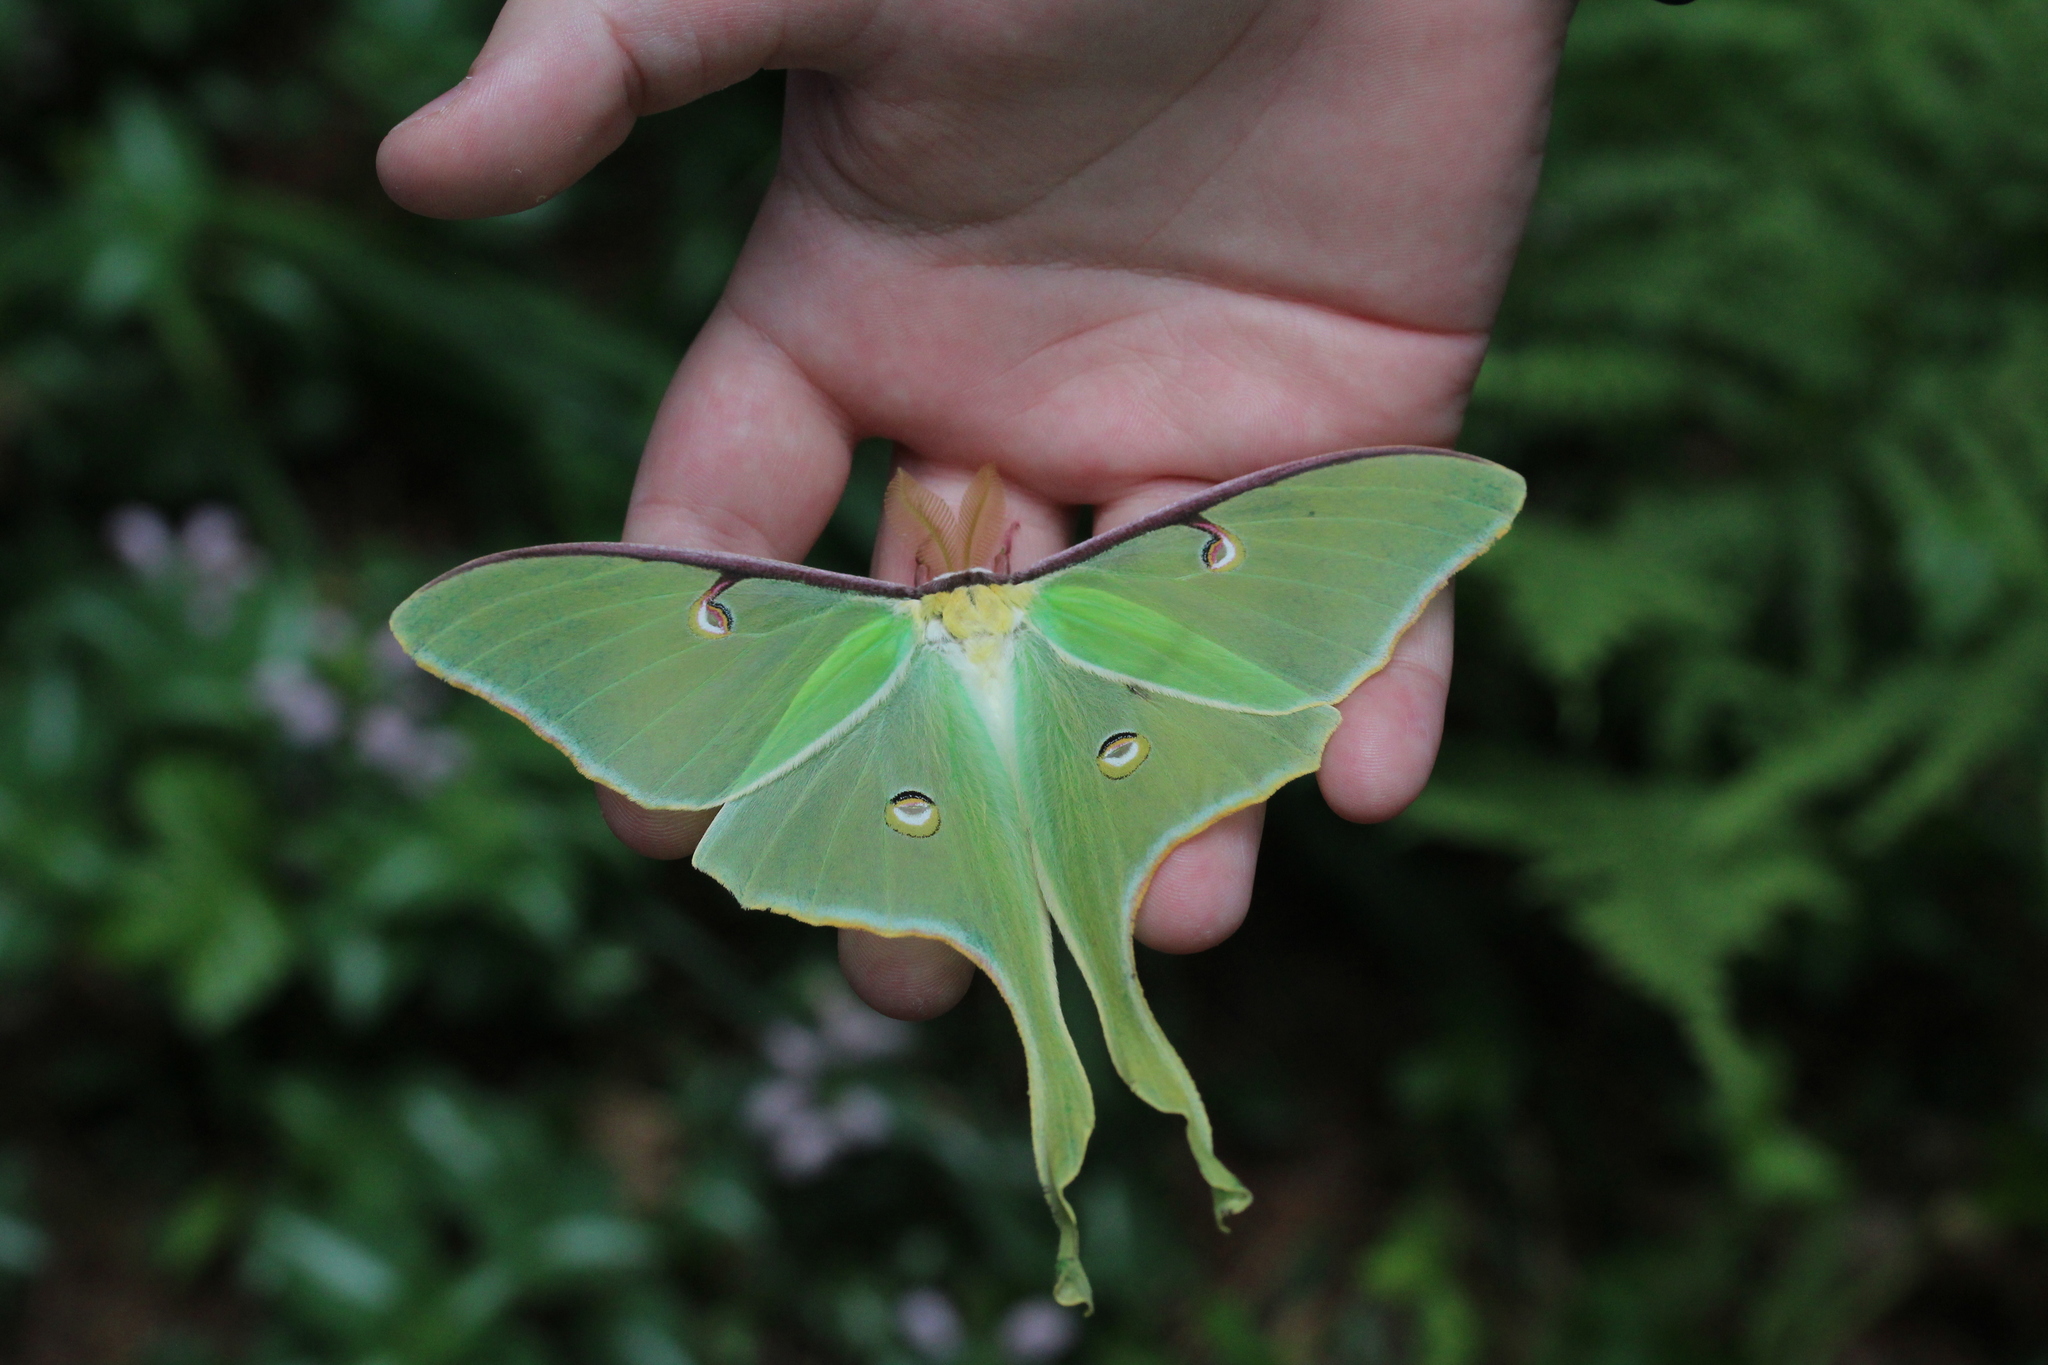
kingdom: Animalia
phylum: Arthropoda
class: Insecta
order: Lepidoptera
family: Saturniidae
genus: Actias
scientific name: Actias luna
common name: Luna moth
